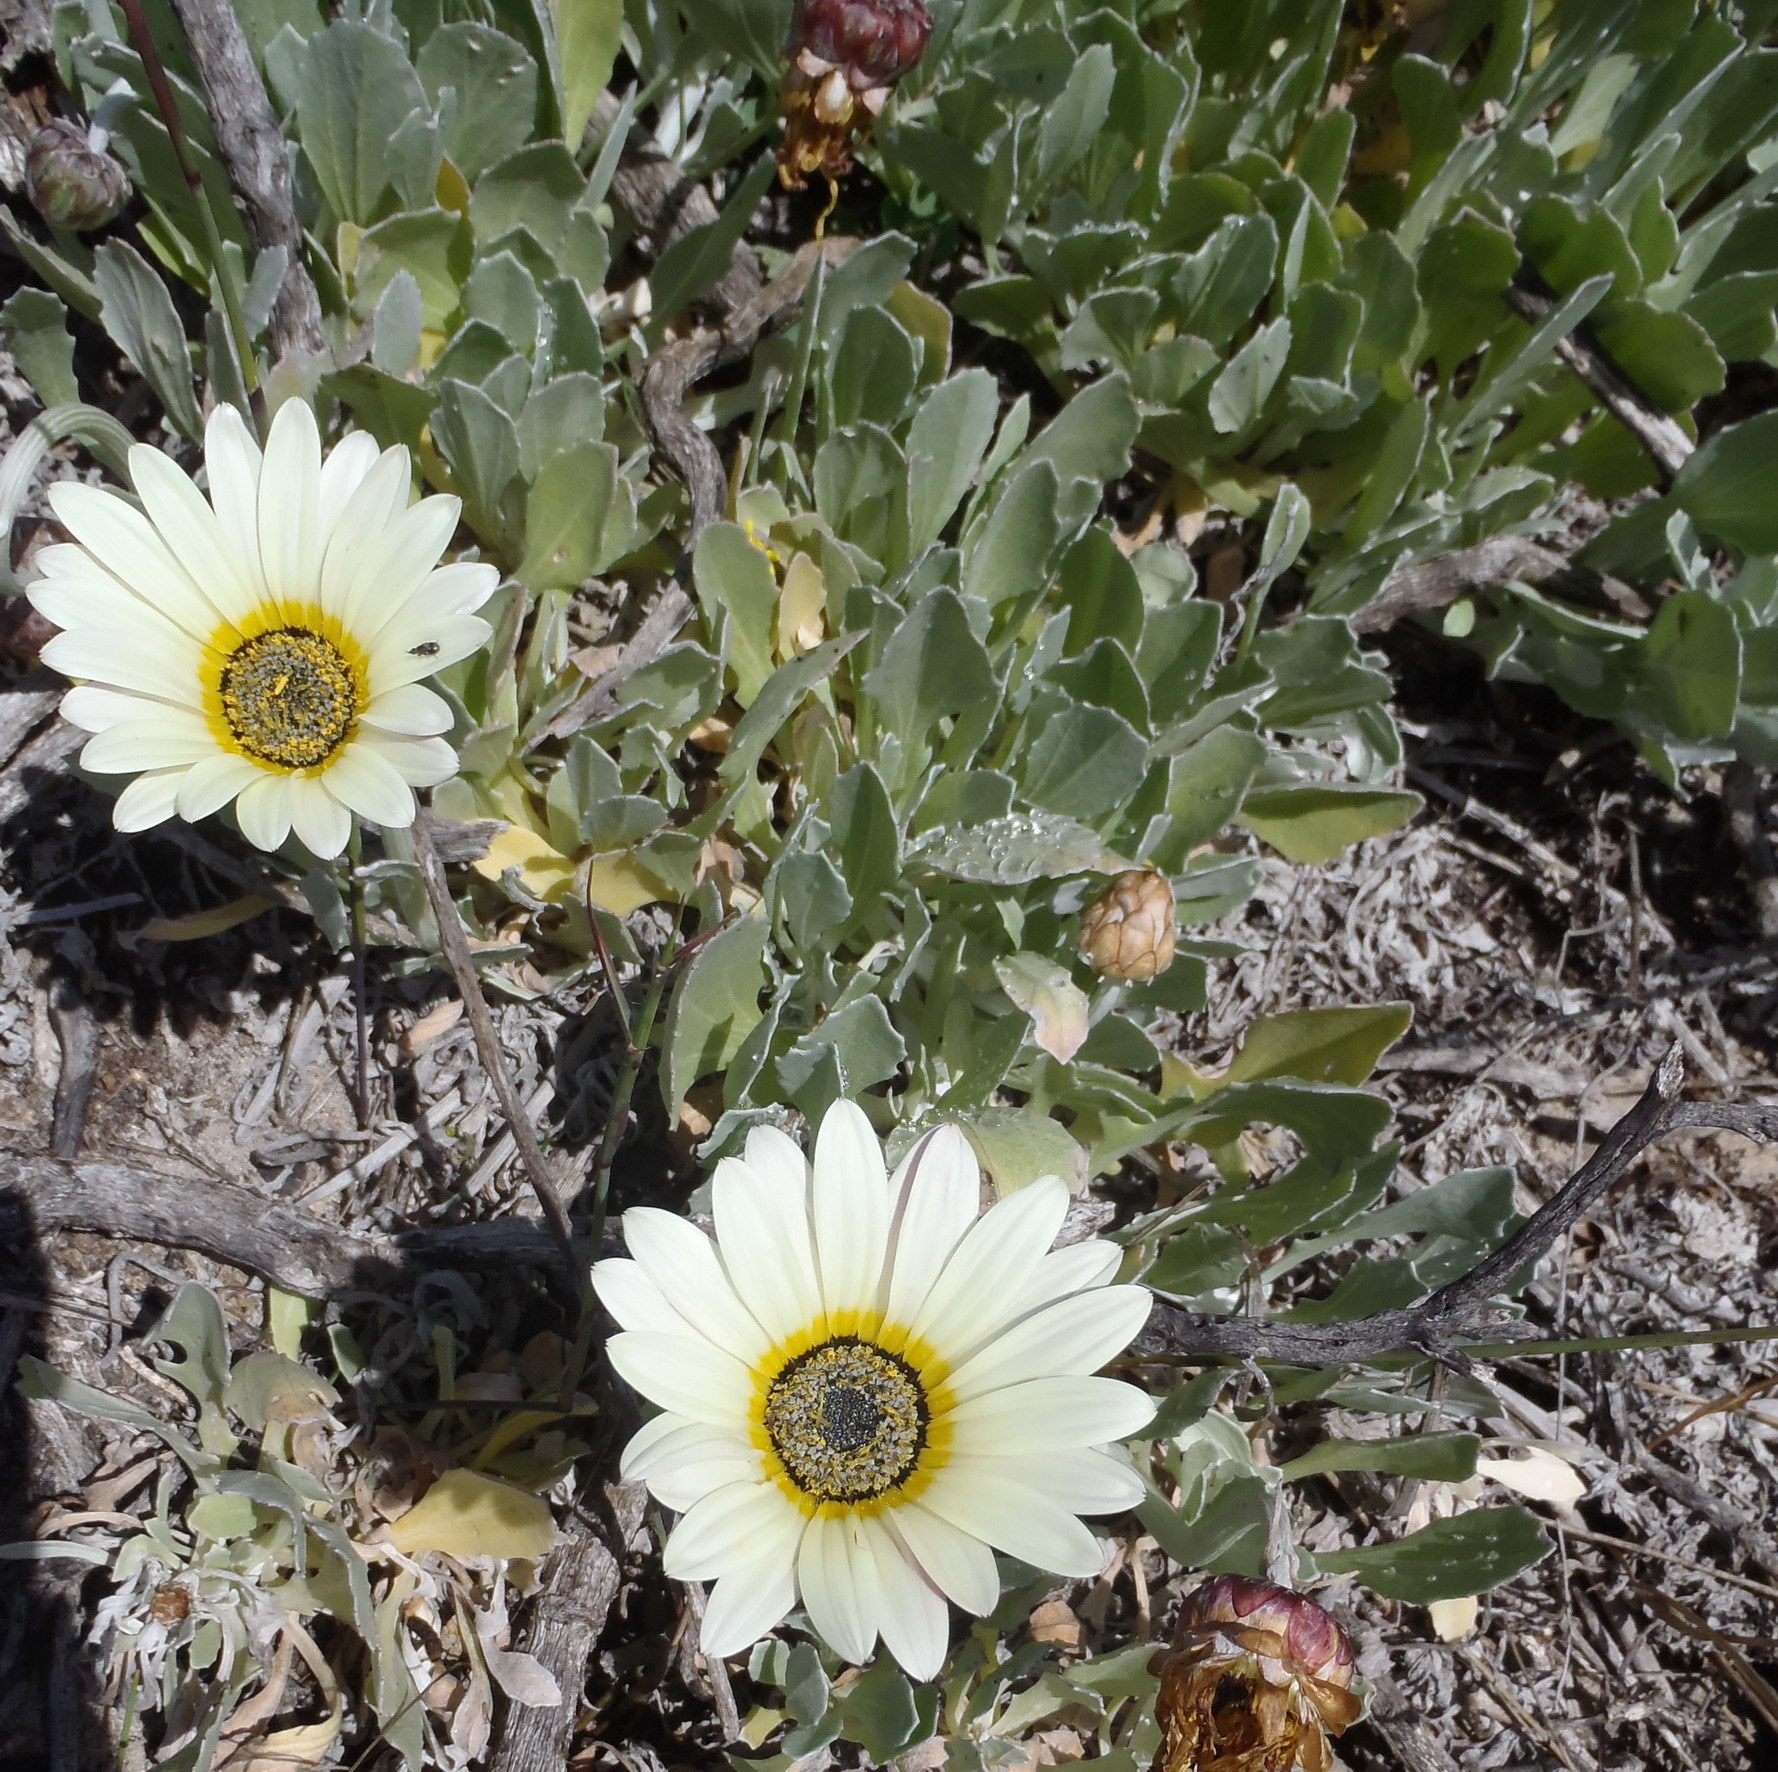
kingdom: Plantae
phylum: Tracheophyta
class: Magnoliopsida
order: Asterales
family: Asteraceae
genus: Arctotis
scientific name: Arctotis stoechadifolia
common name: African daisy
